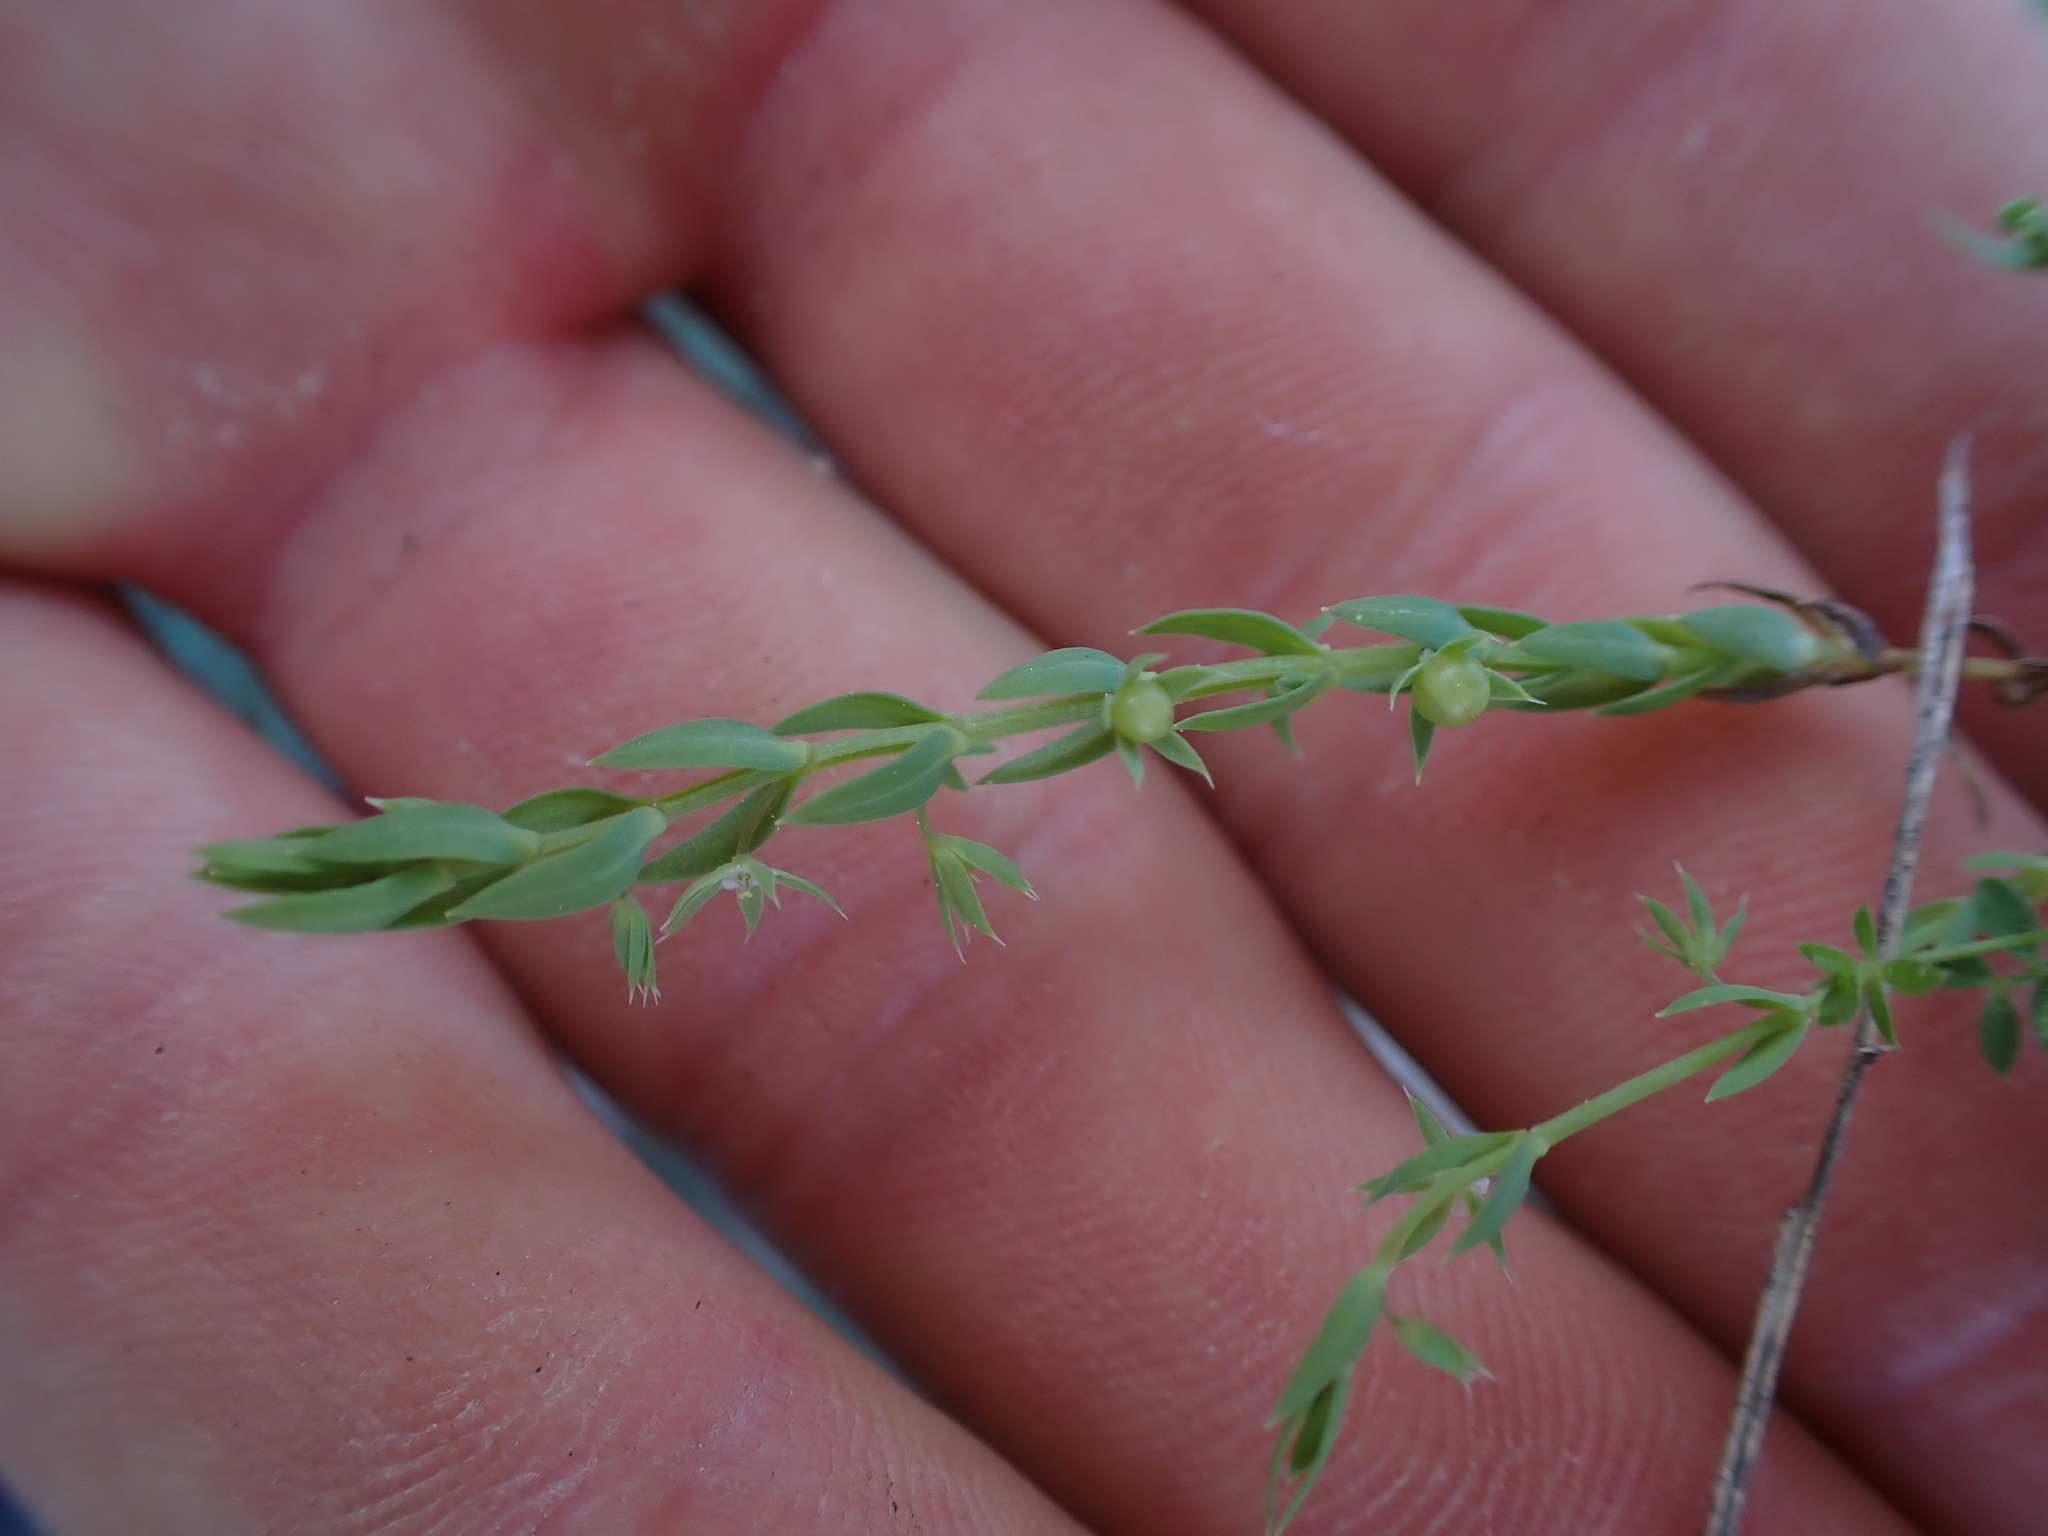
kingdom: Plantae
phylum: Tracheophyta
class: Magnoliopsida
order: Ericales
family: Primulaceae
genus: Lysimachia
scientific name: Lysimachia linum-stellatum
